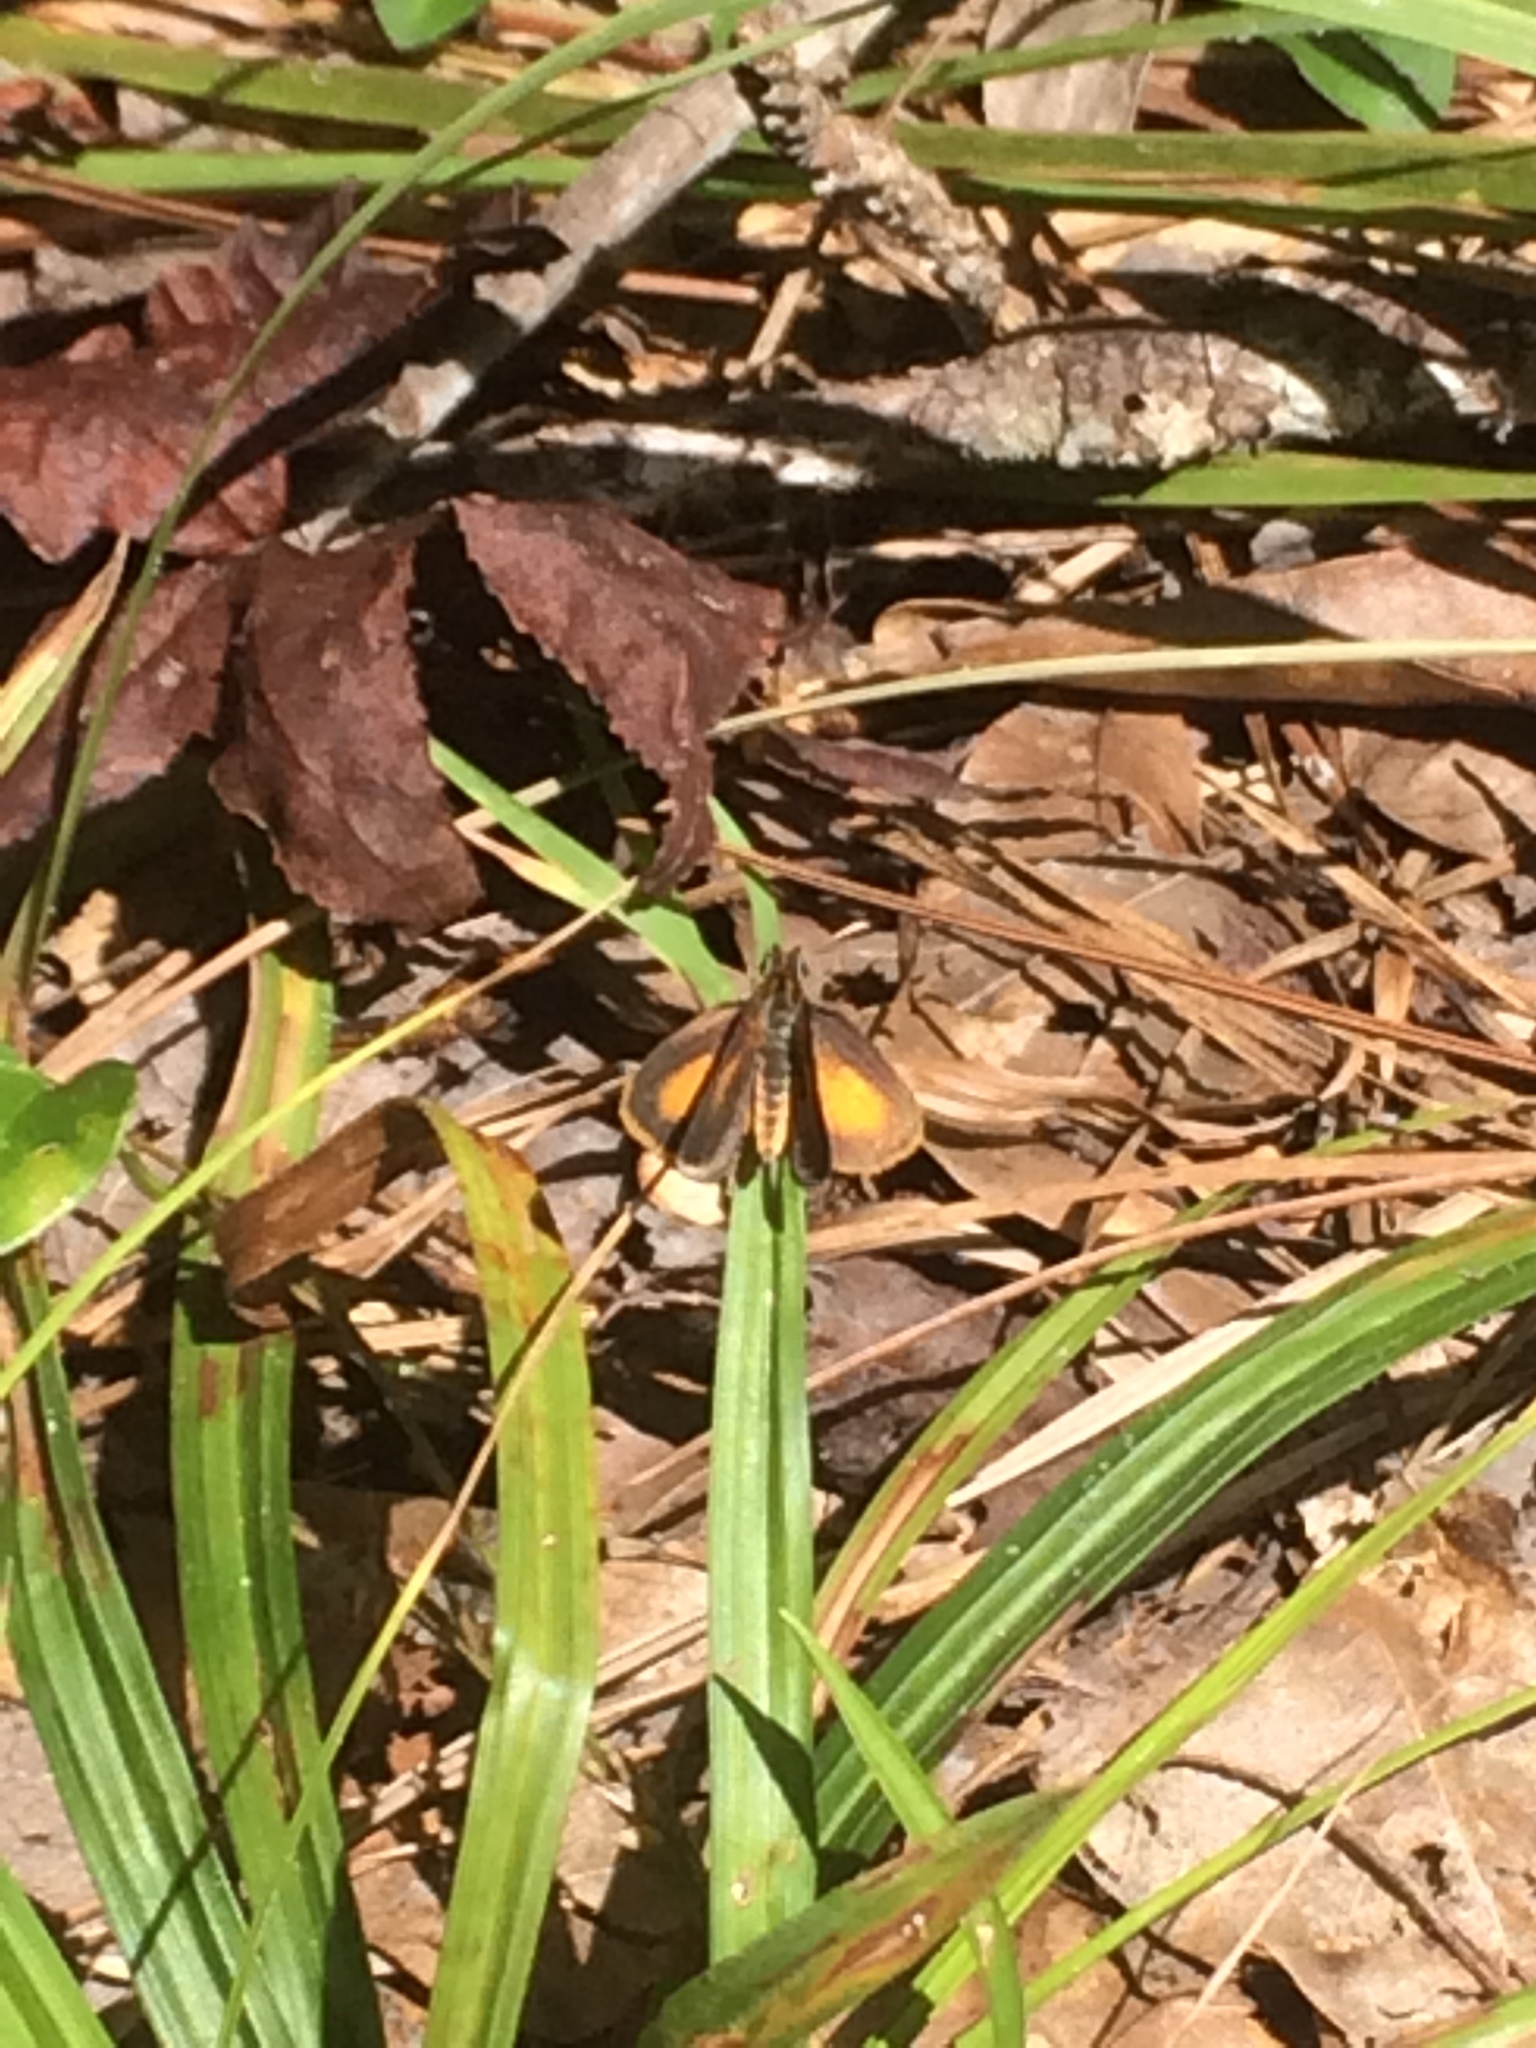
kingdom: Animalia
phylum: Arthropoda
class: Insecta
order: Lepidoptera
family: Hesperiidae
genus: Ancyloxypha
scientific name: Ancyloxypha numitor
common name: Least skipper
